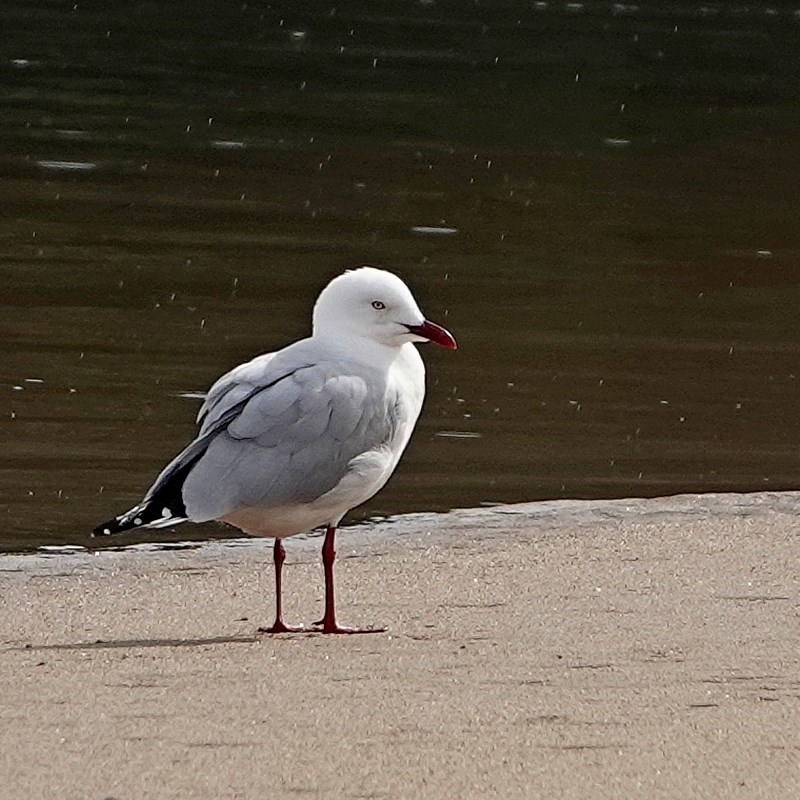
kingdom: Animalia
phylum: Chordata
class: Aves
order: Charadriiformes
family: Laridae
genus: Chroicocephalus
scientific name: Chroicocephalus novaehollandiae
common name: Silver gull
